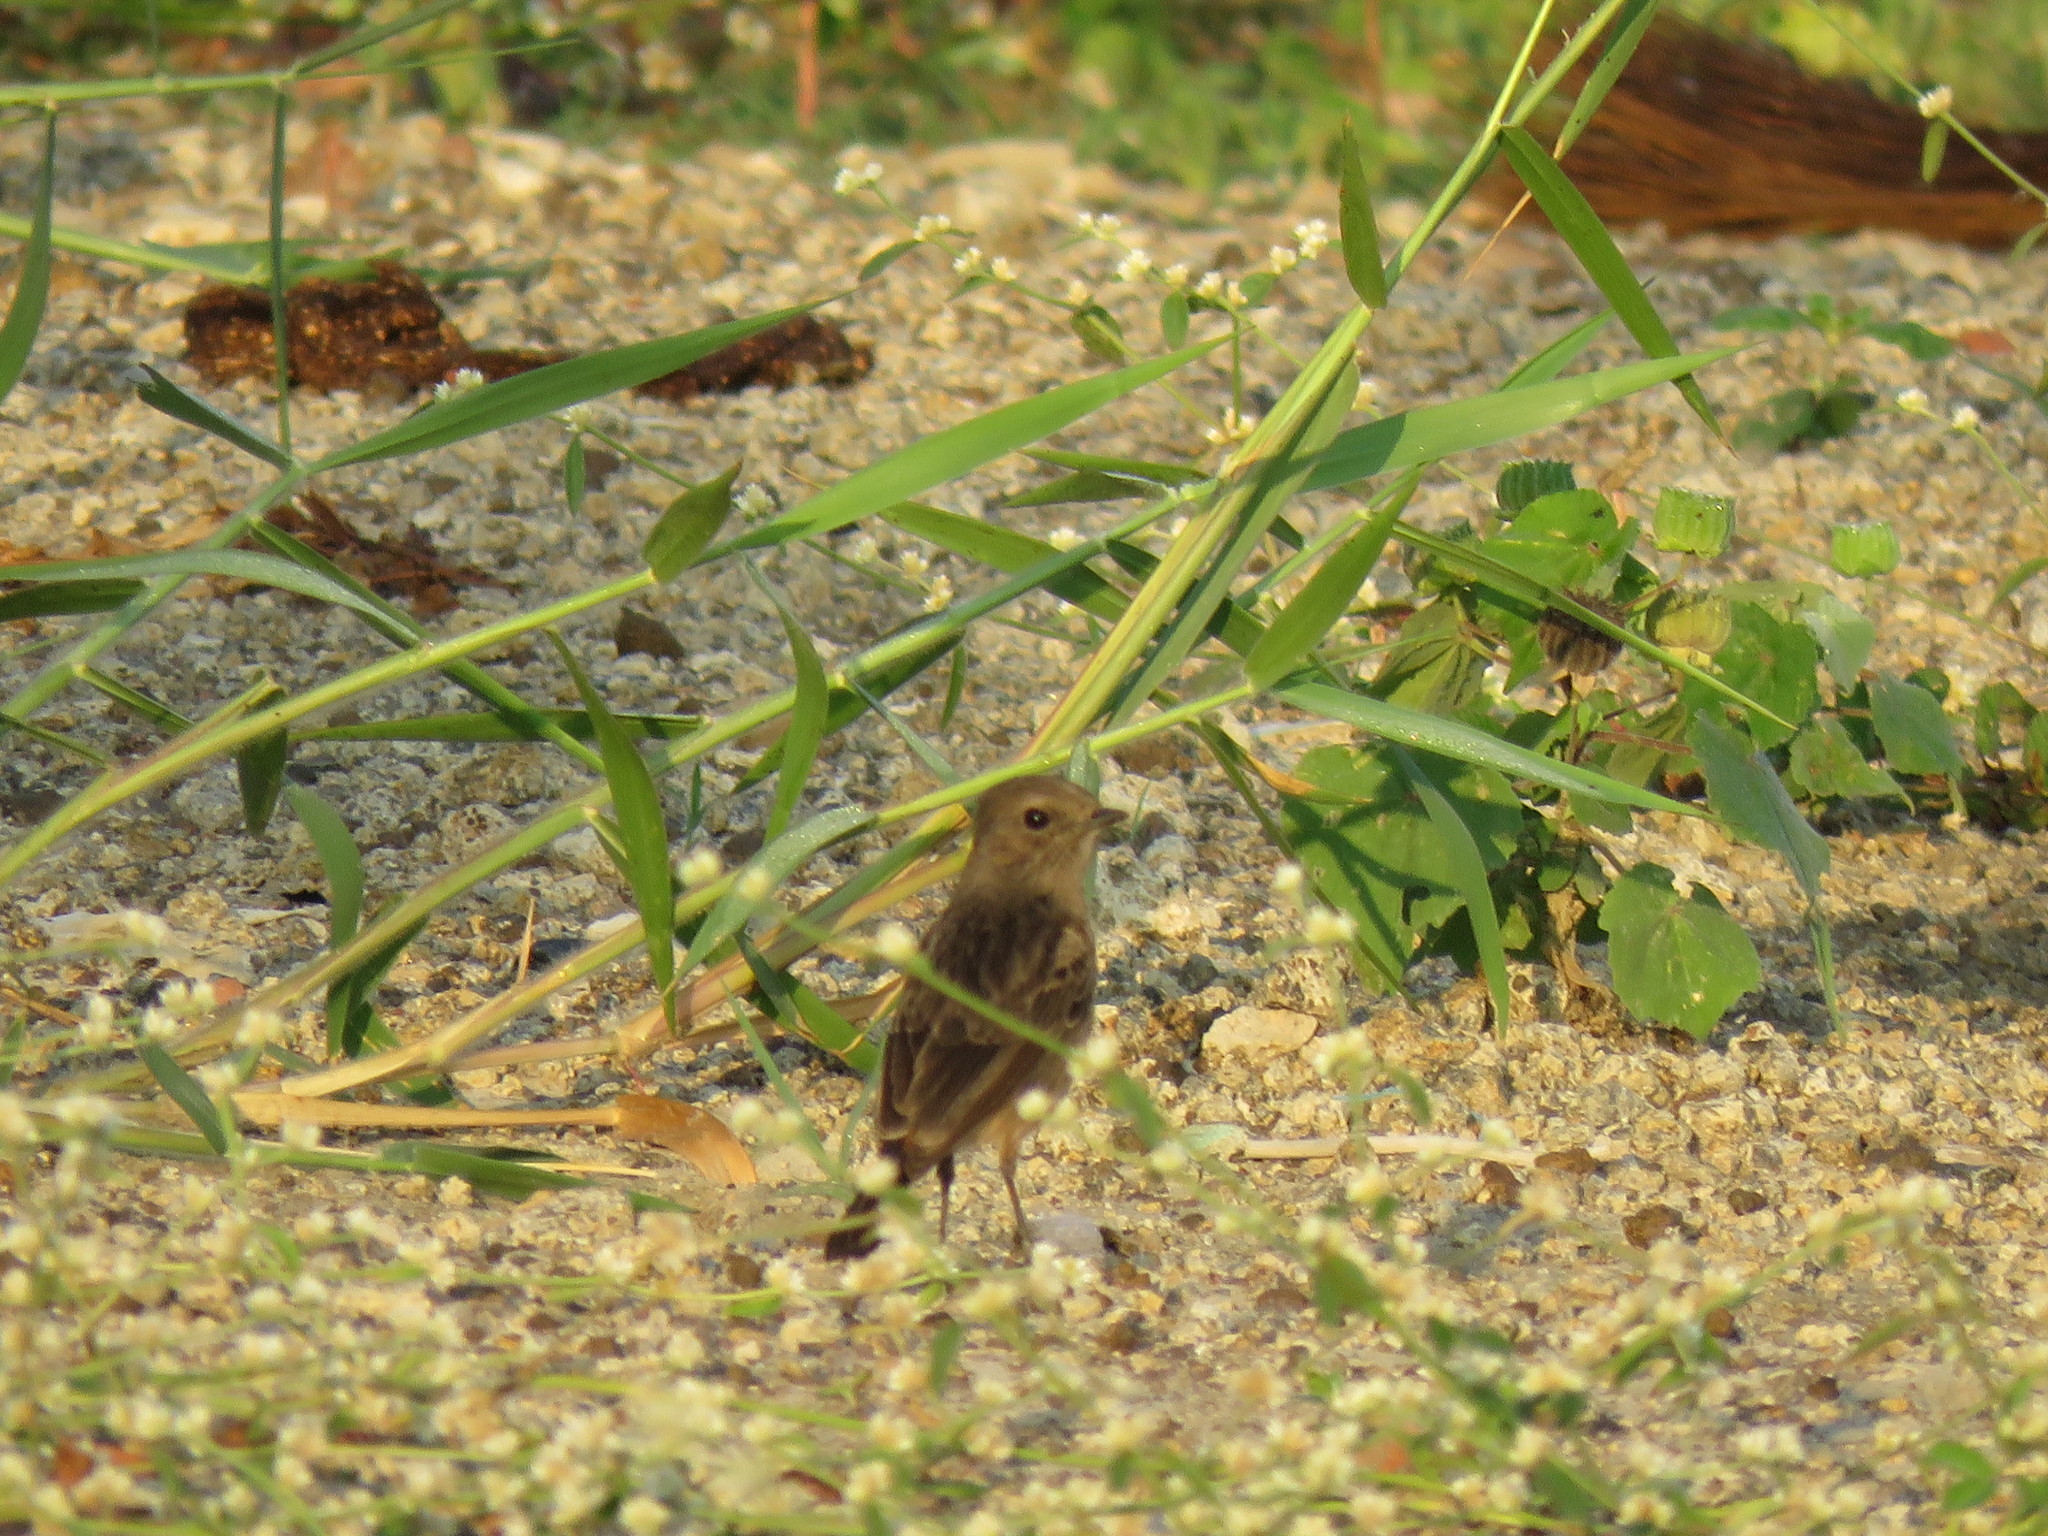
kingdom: Animalia
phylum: Chordata
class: Aves
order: Passeriformes
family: Muscicapidae
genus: Saxicola
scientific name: Saxicola caprata
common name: Pied bush chat
